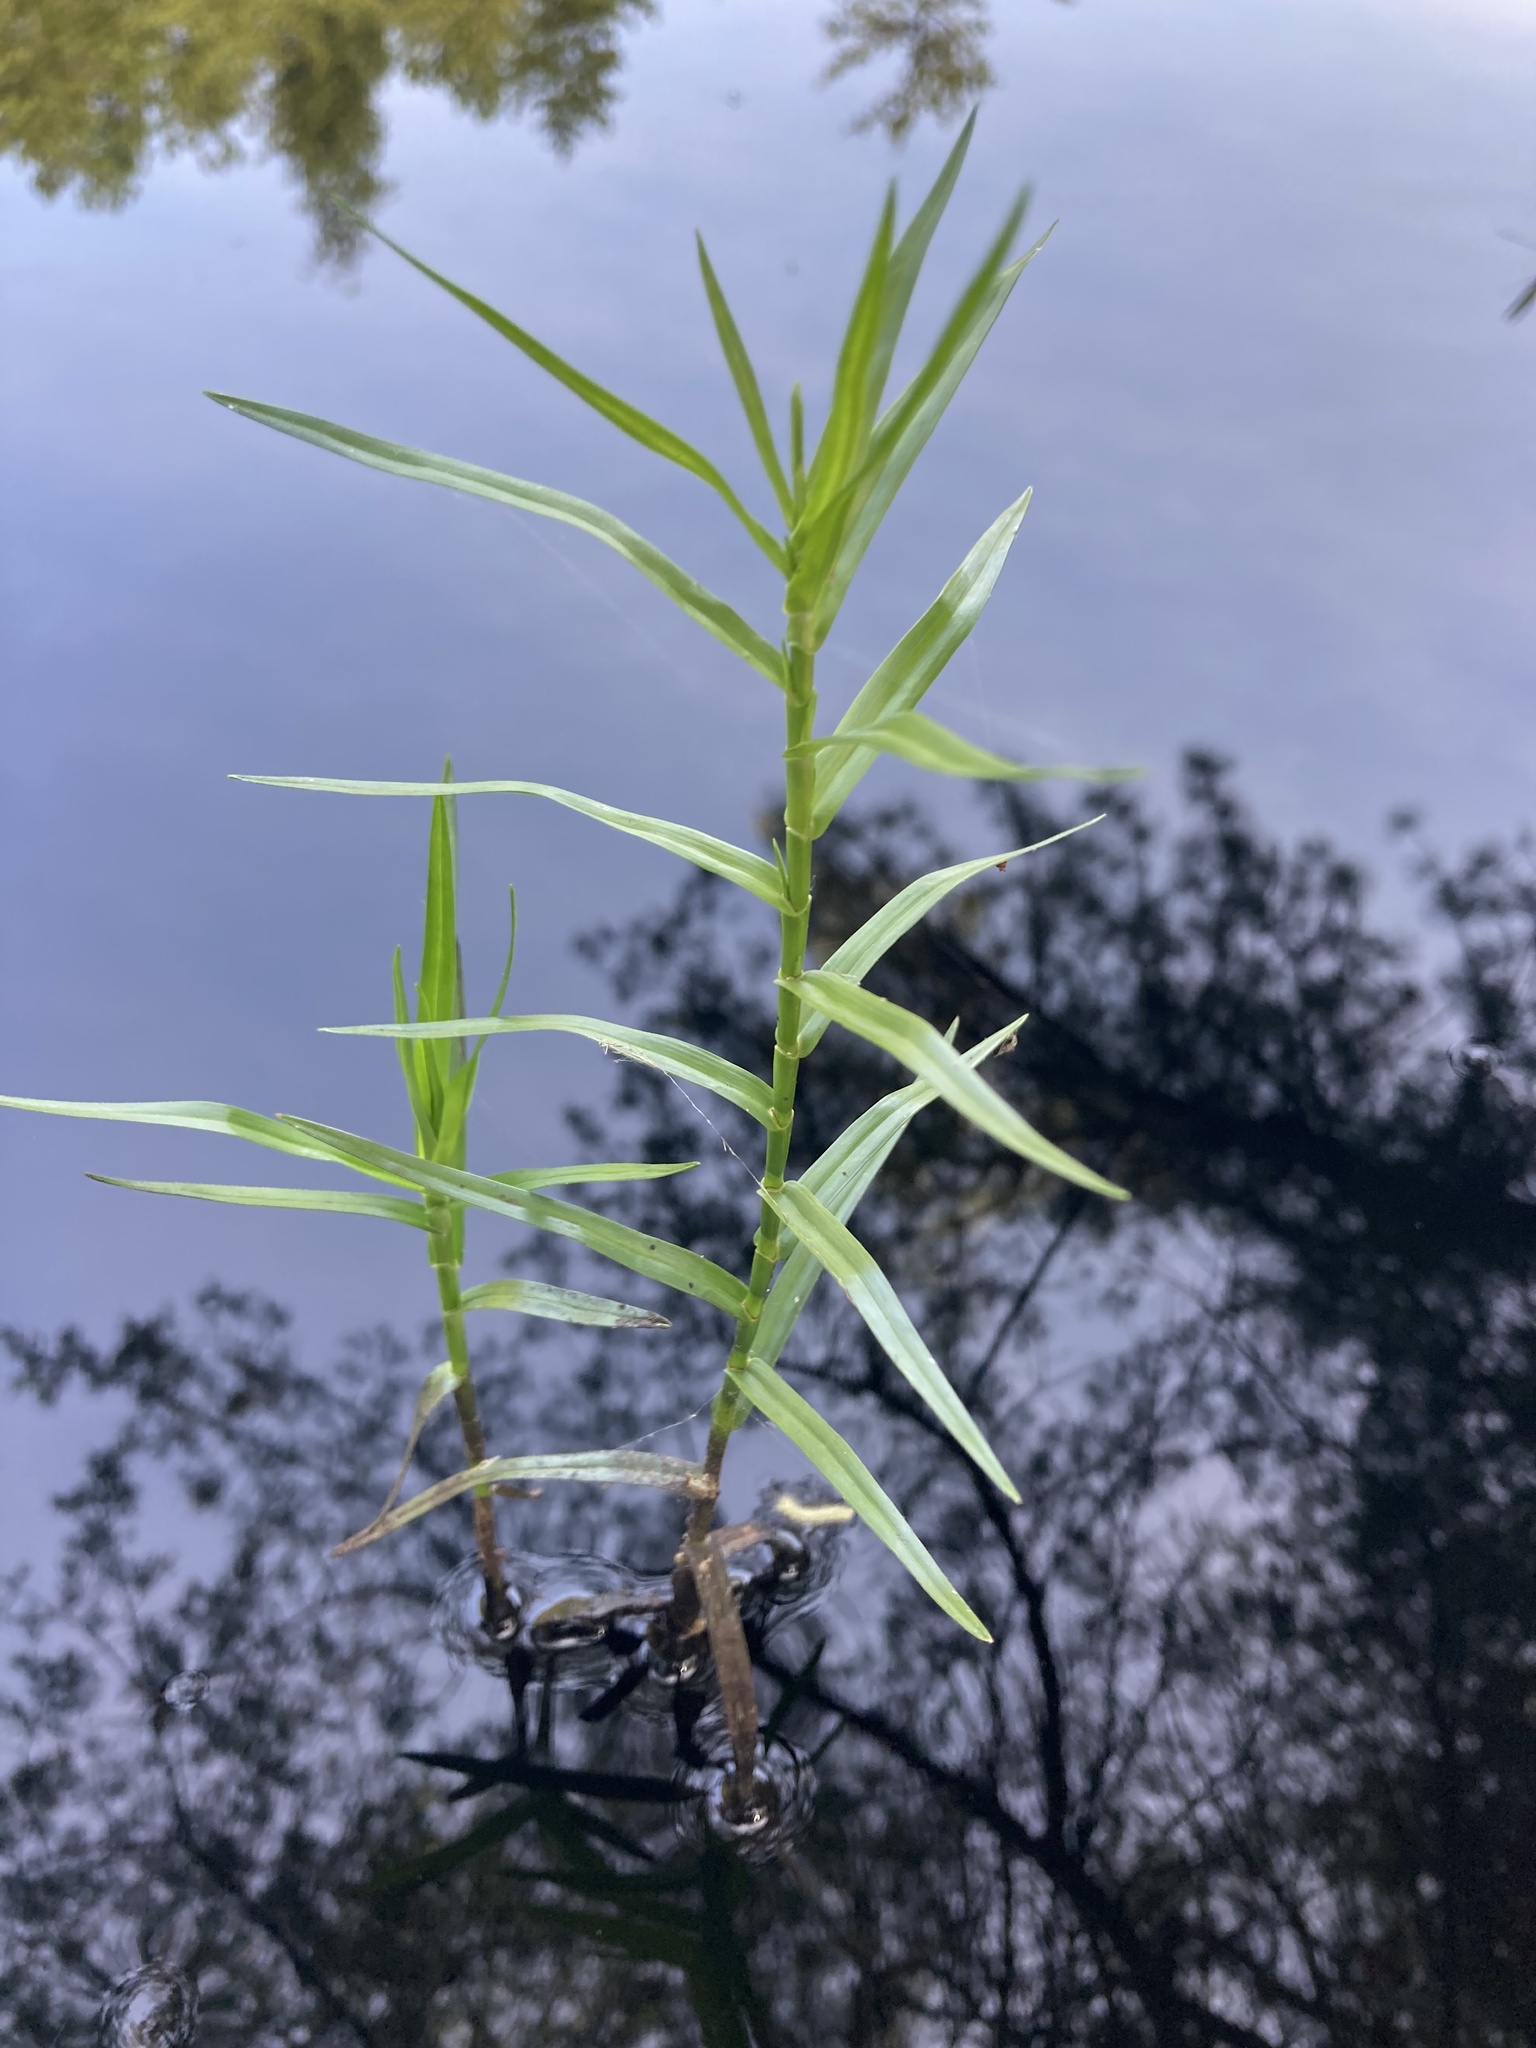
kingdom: Plantae
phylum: Tracheophyta
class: Liliopsida
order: Poales
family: Cyperaceae
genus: Dulichium
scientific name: Dulichium arundinaceum
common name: Three-way sedge
